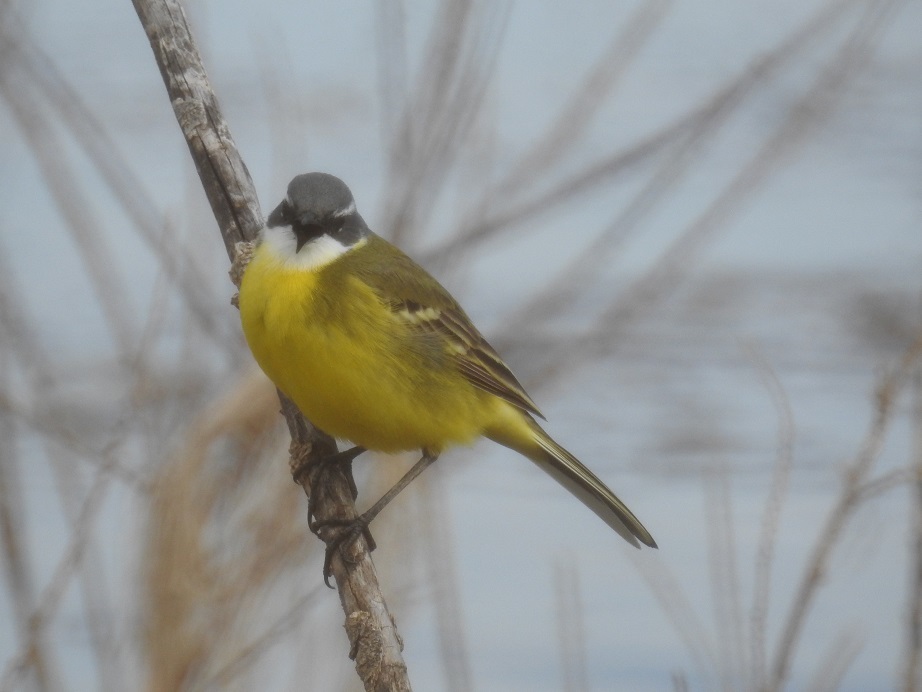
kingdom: Animalia
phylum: Chordata
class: Aves
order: Passeriformes
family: Motacillidae
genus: Motacilla
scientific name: Motacilla flava
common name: Western yellow wagtail
